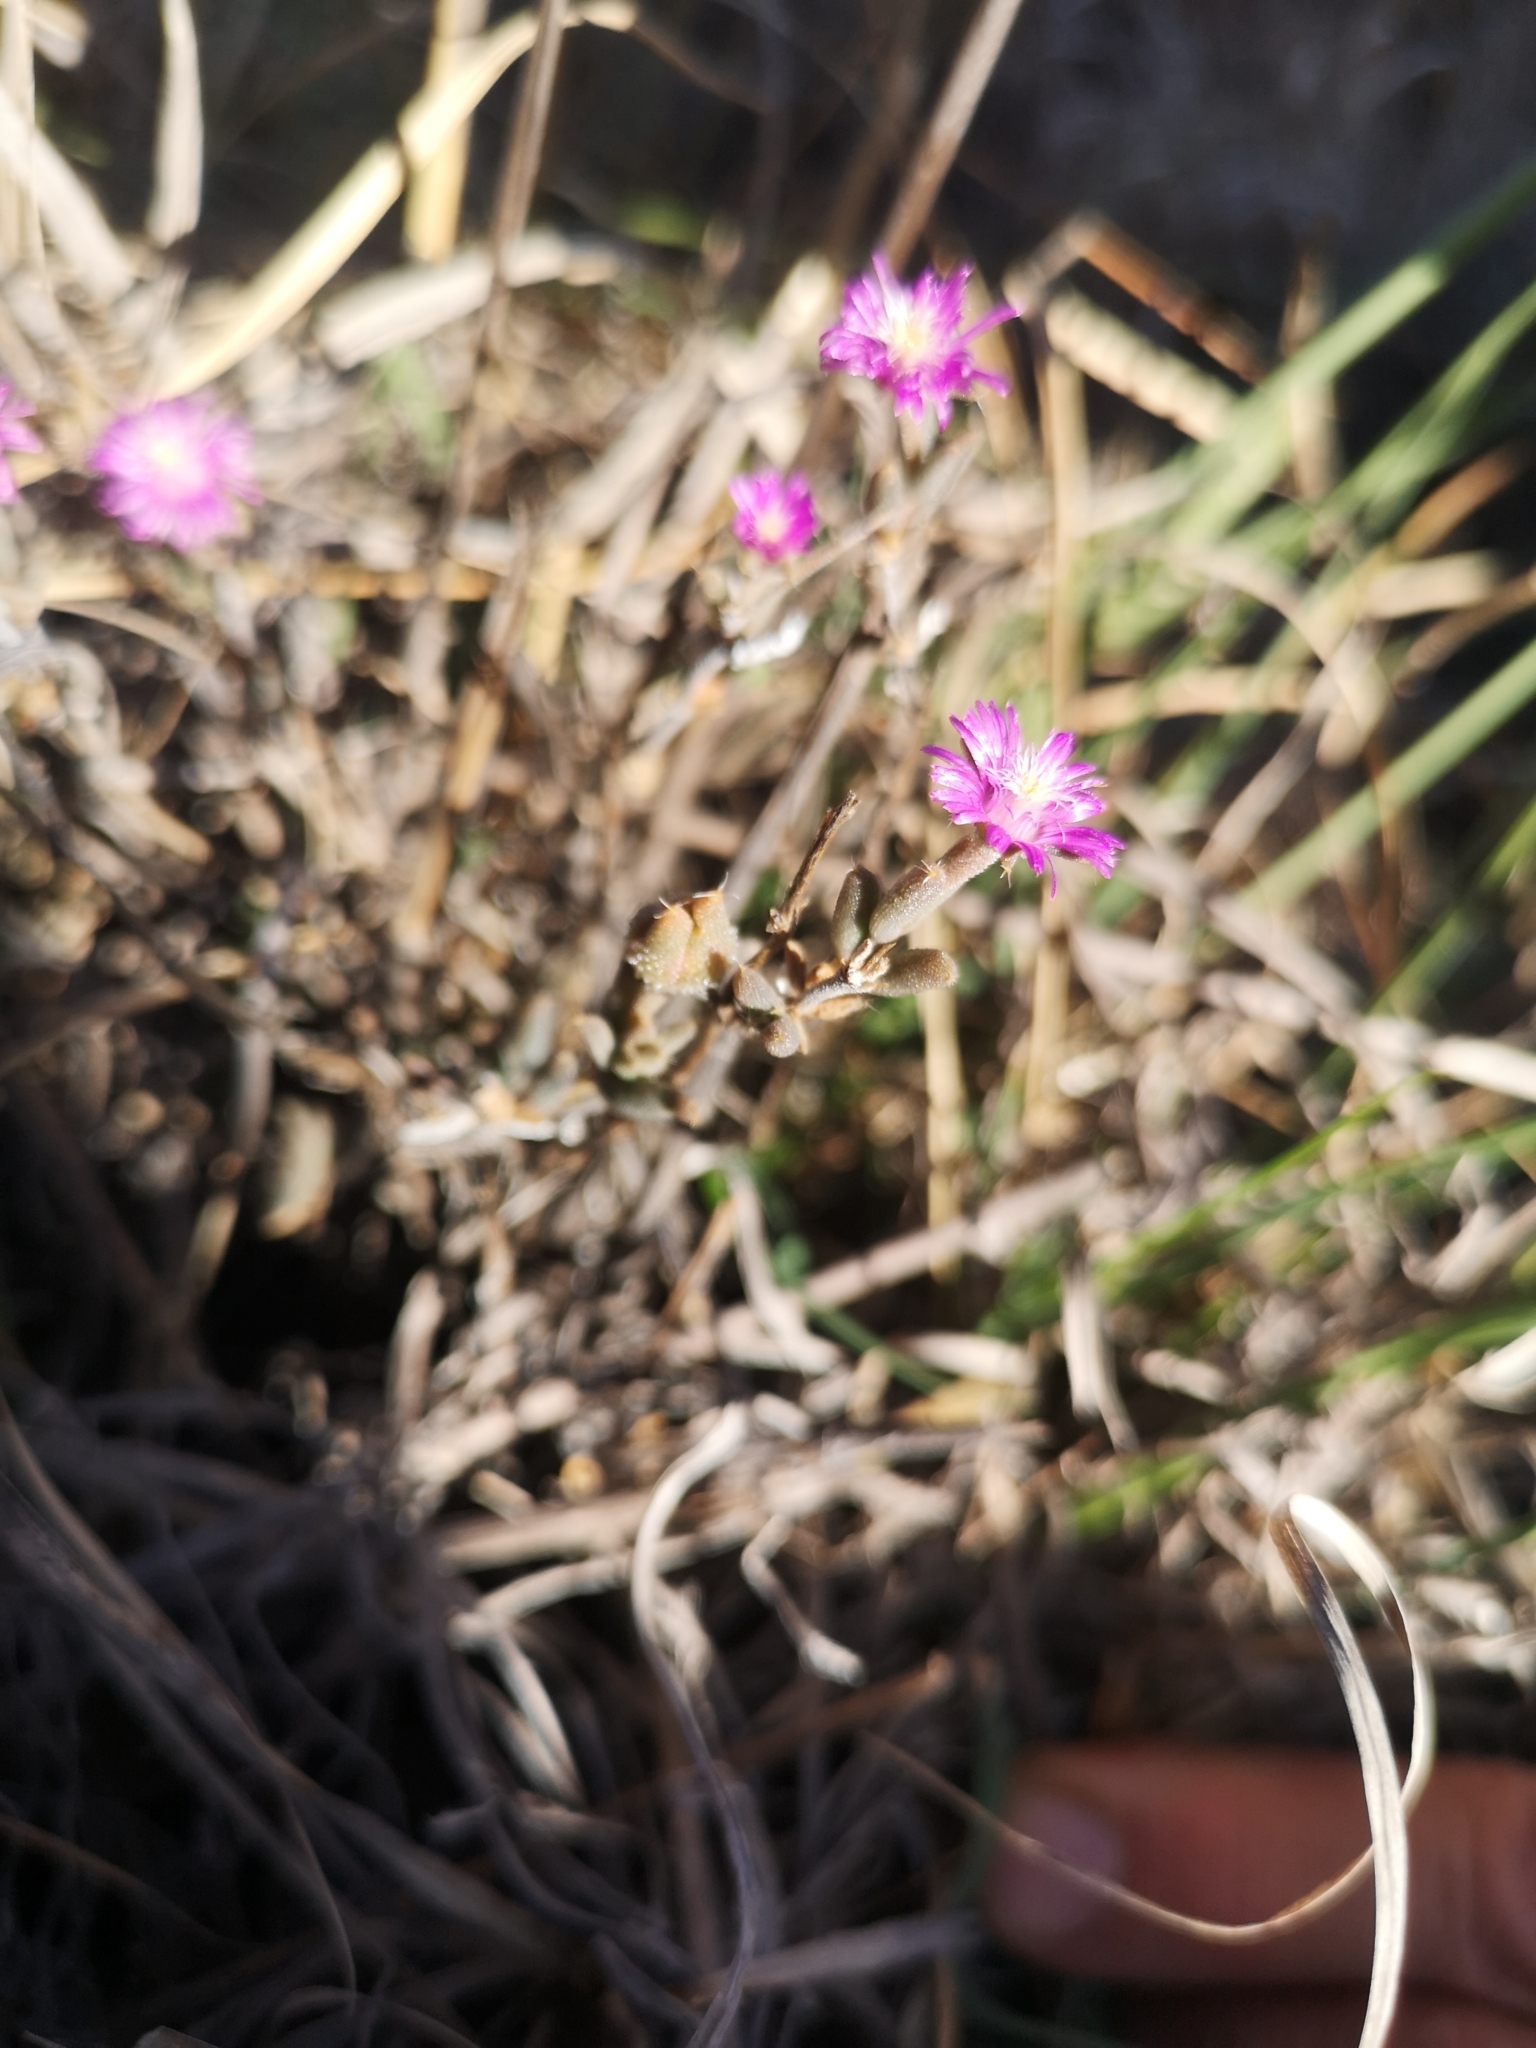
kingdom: Plantae
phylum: Tracheophyta
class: Magnoliopsida
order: Caryophyllales
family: Aizoaceae
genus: Trichodiadema
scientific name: Trichodiadema setuliferum
